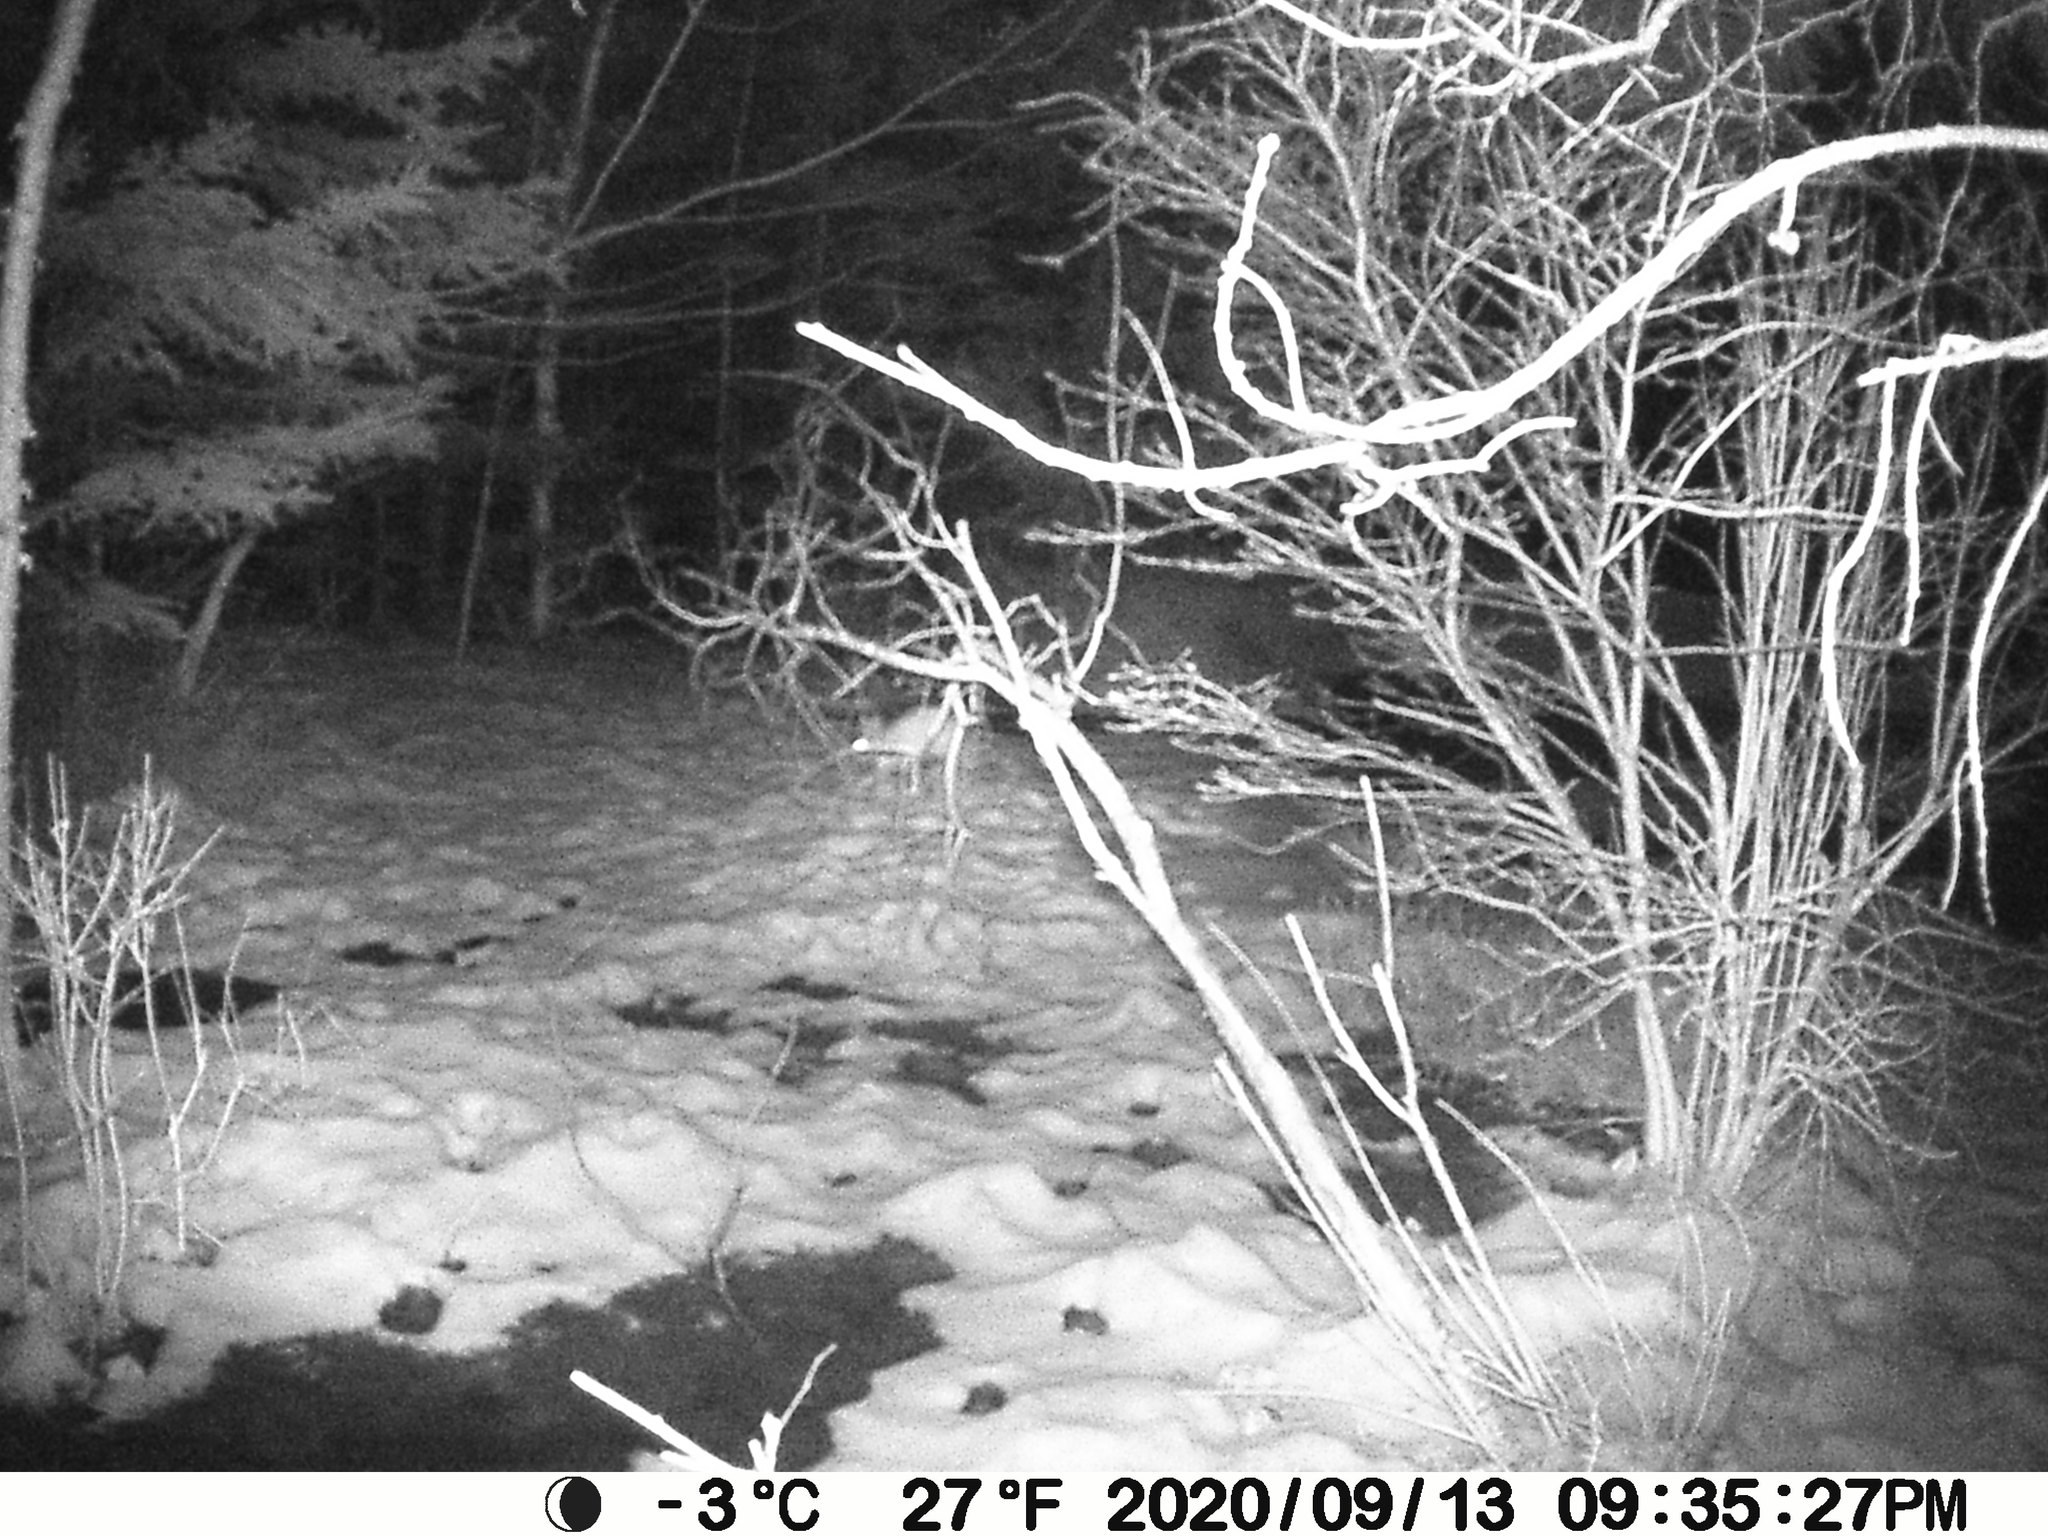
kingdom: Animalia
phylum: Chordata
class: Mammalia
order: Lagomorpha
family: Leporidae
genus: Lepus
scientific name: Lepus americanus
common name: Snowshoe hare
